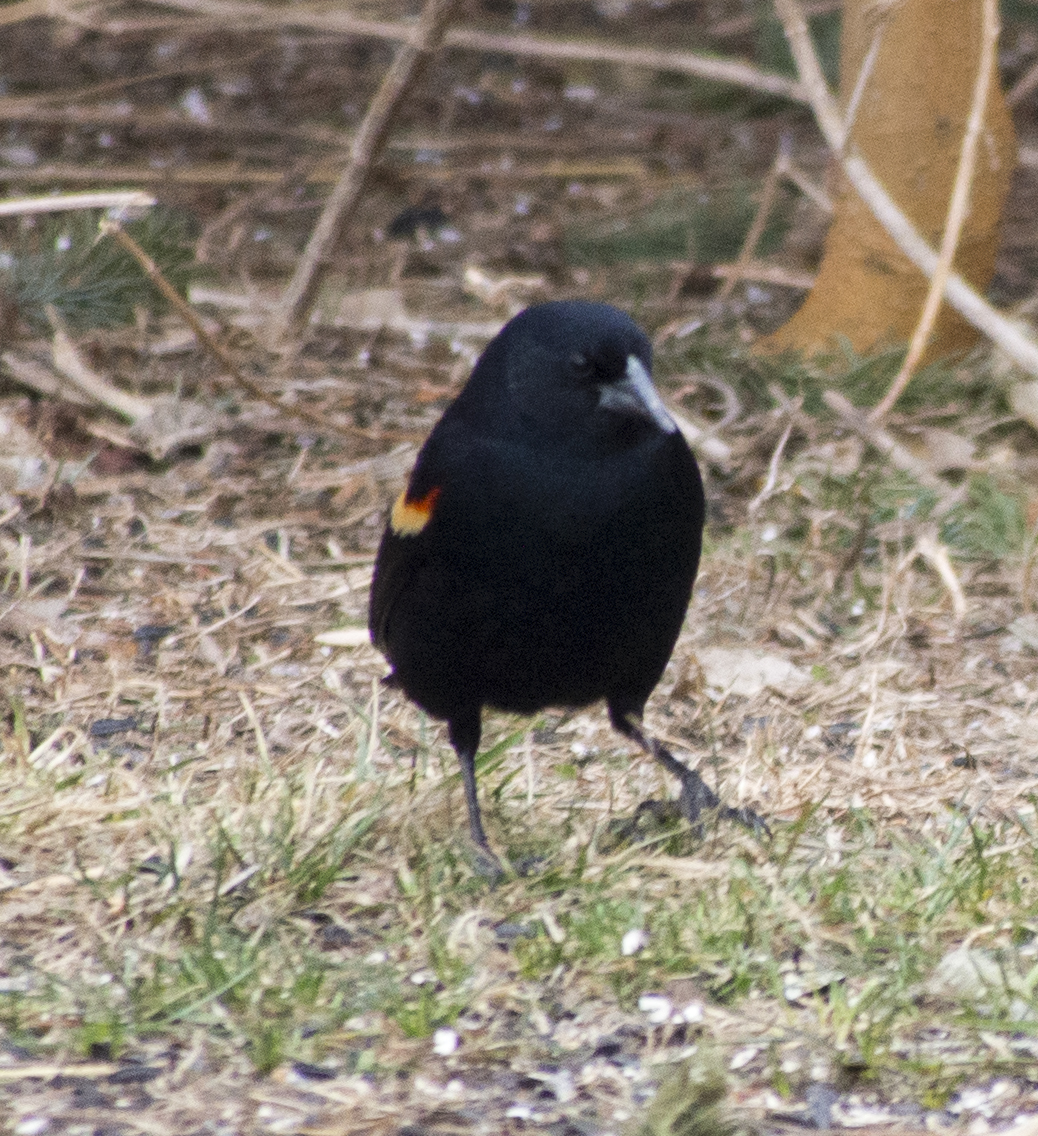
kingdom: Animalia
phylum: Chordata
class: Aves
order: Passeriformes
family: Icteridae
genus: Agelaius
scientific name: Agelaius phoeniceus
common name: Red-winged blackbird
